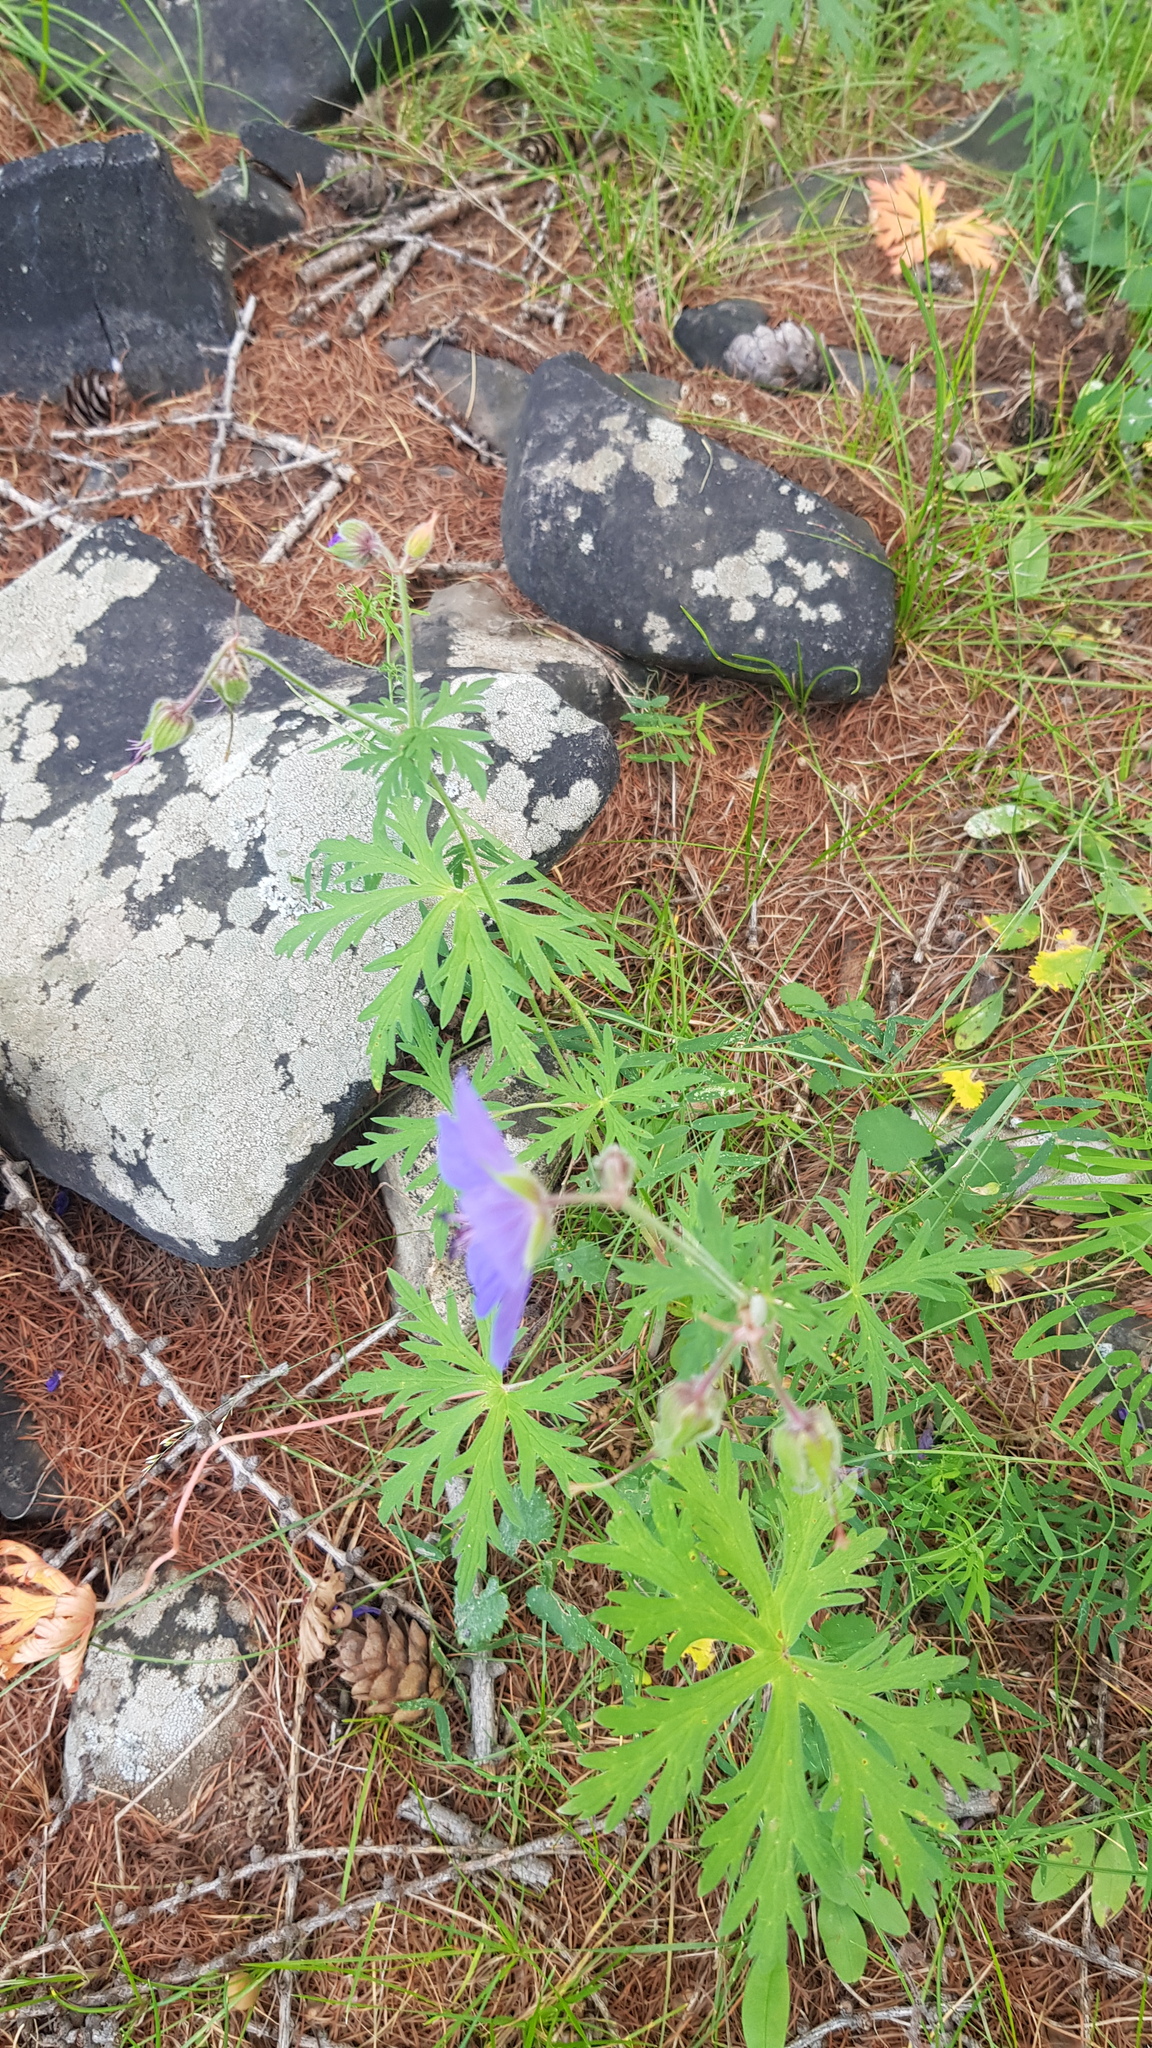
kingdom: Plantae
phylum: Tracheophyta
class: Magnoliopsida
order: Geraniales
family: Geraniaceae
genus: Geranium
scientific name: Geranium pratense
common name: Meadow crane's-bill
